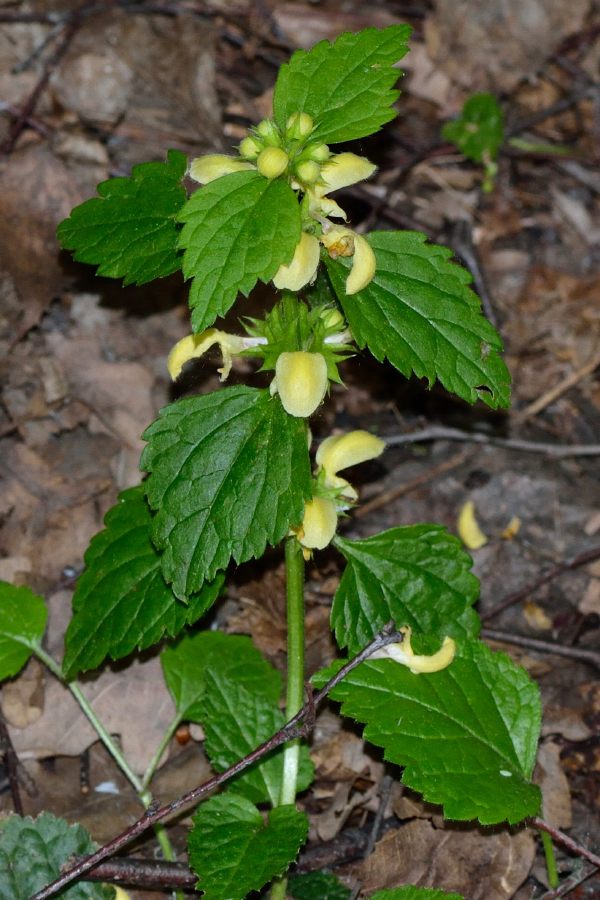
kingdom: Plantae
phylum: Tracheophyta
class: Magnoliopsida
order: Lamiales
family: Lamiaceae
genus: Lamium
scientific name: Lamium galeobdolon
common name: Yellow archangel
